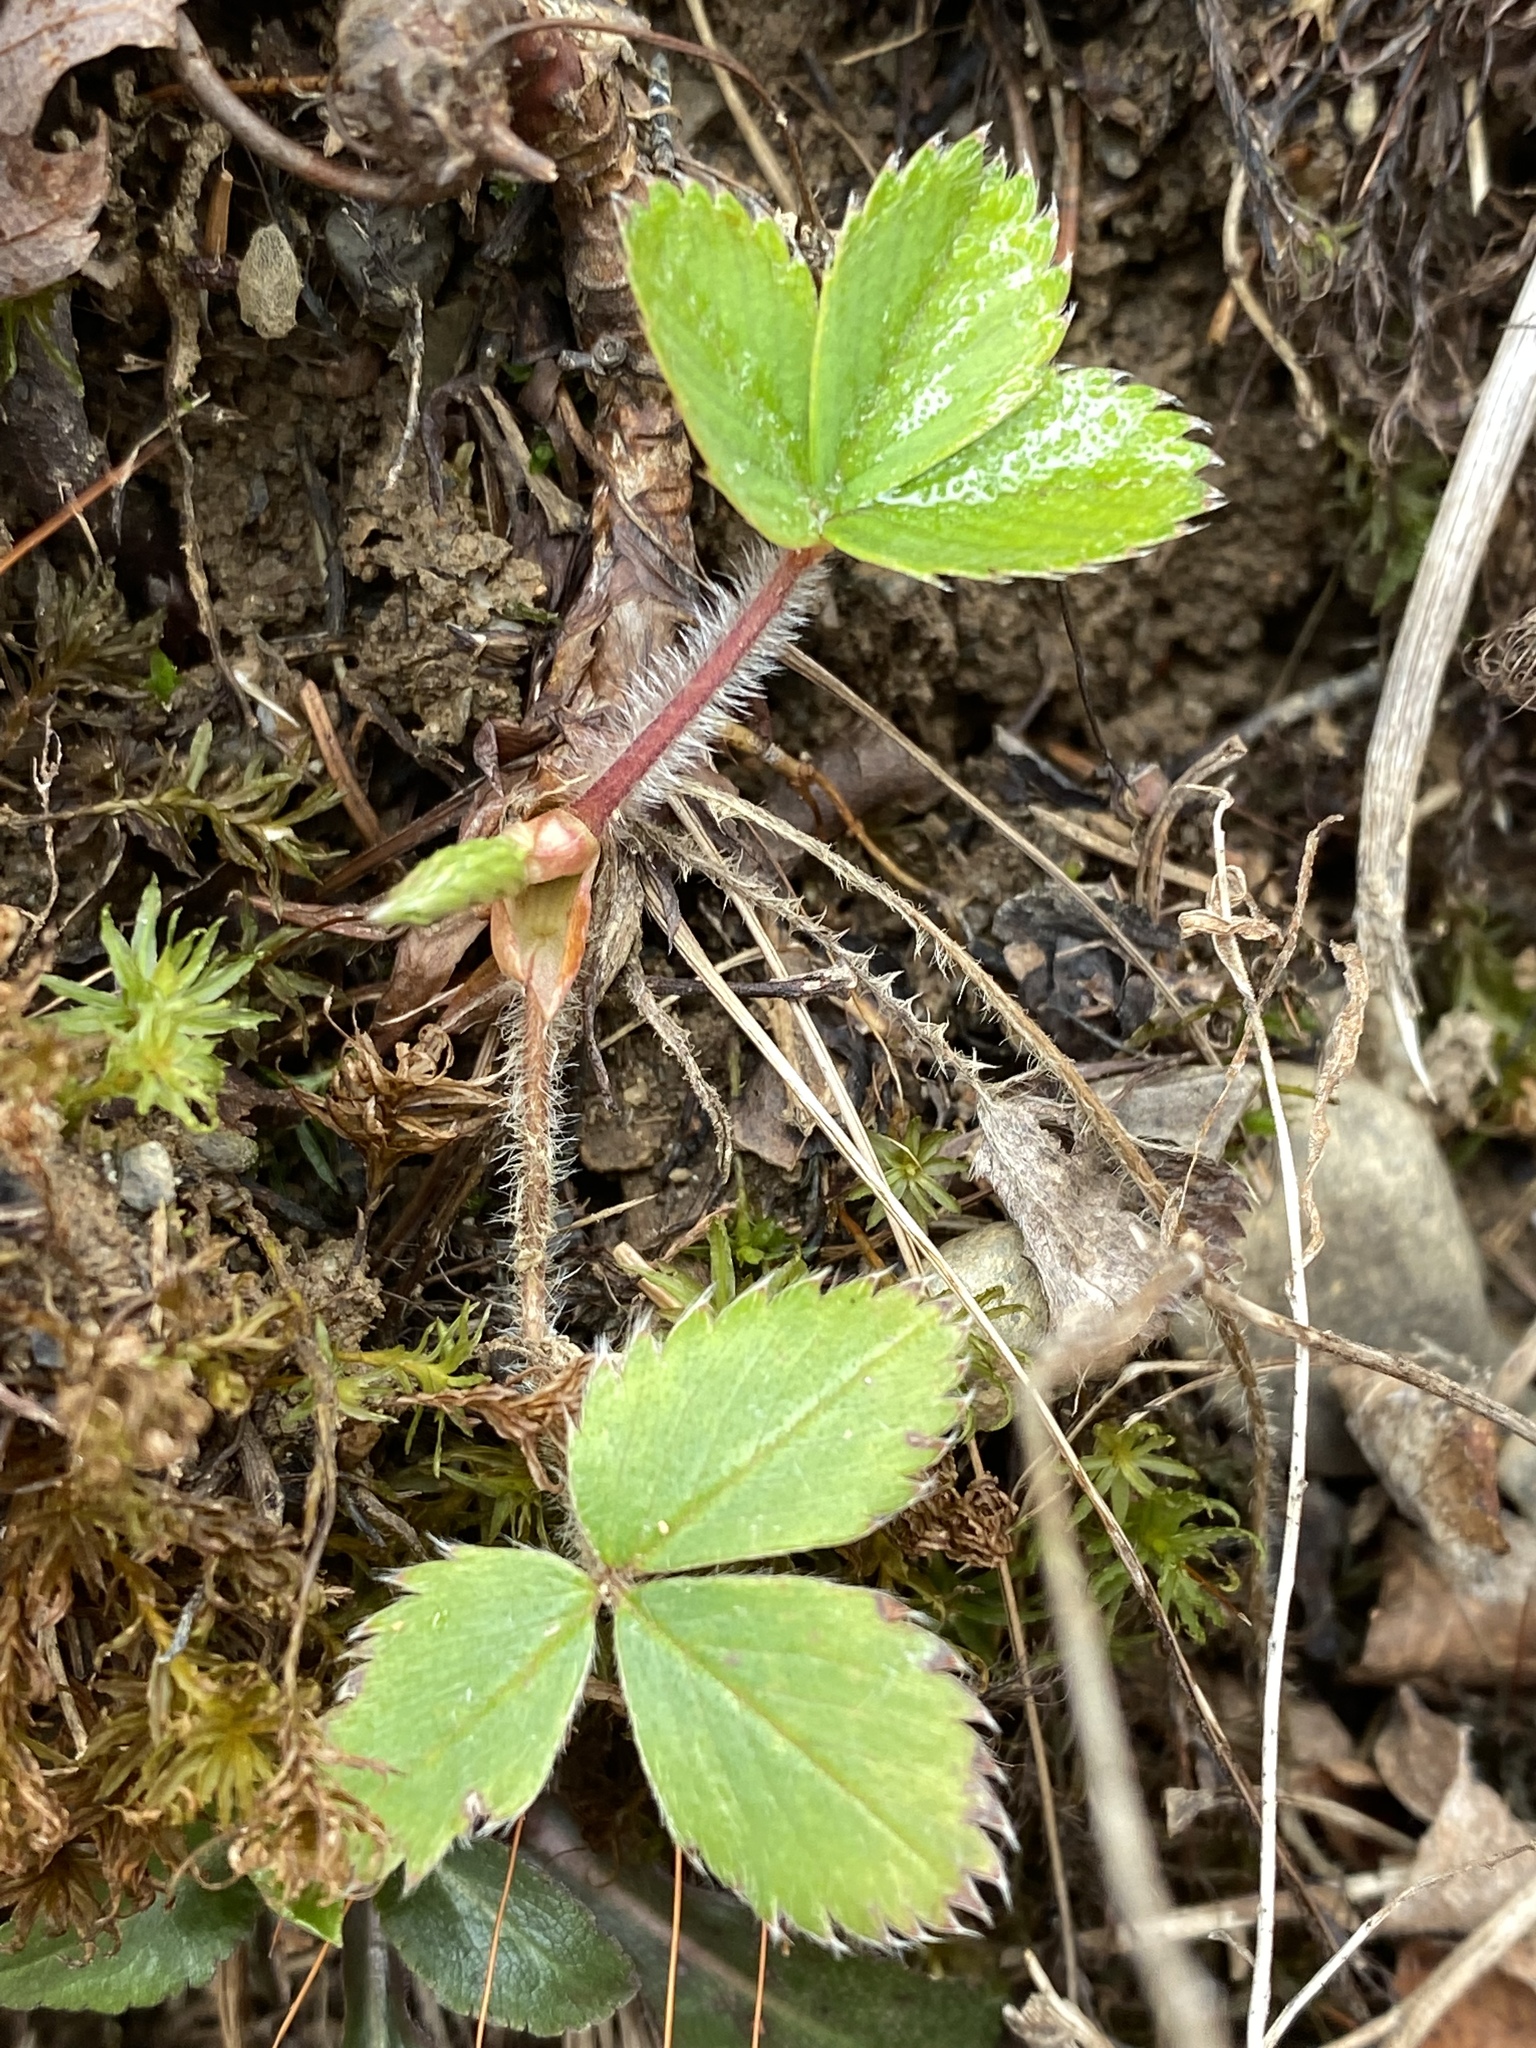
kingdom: Plantae
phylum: Tracheophyta
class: Magnoliopsida
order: Rosales
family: Rosaceae
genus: Fragaria
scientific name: Fragaria virginiana
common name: Thickleaved wild strawberry
